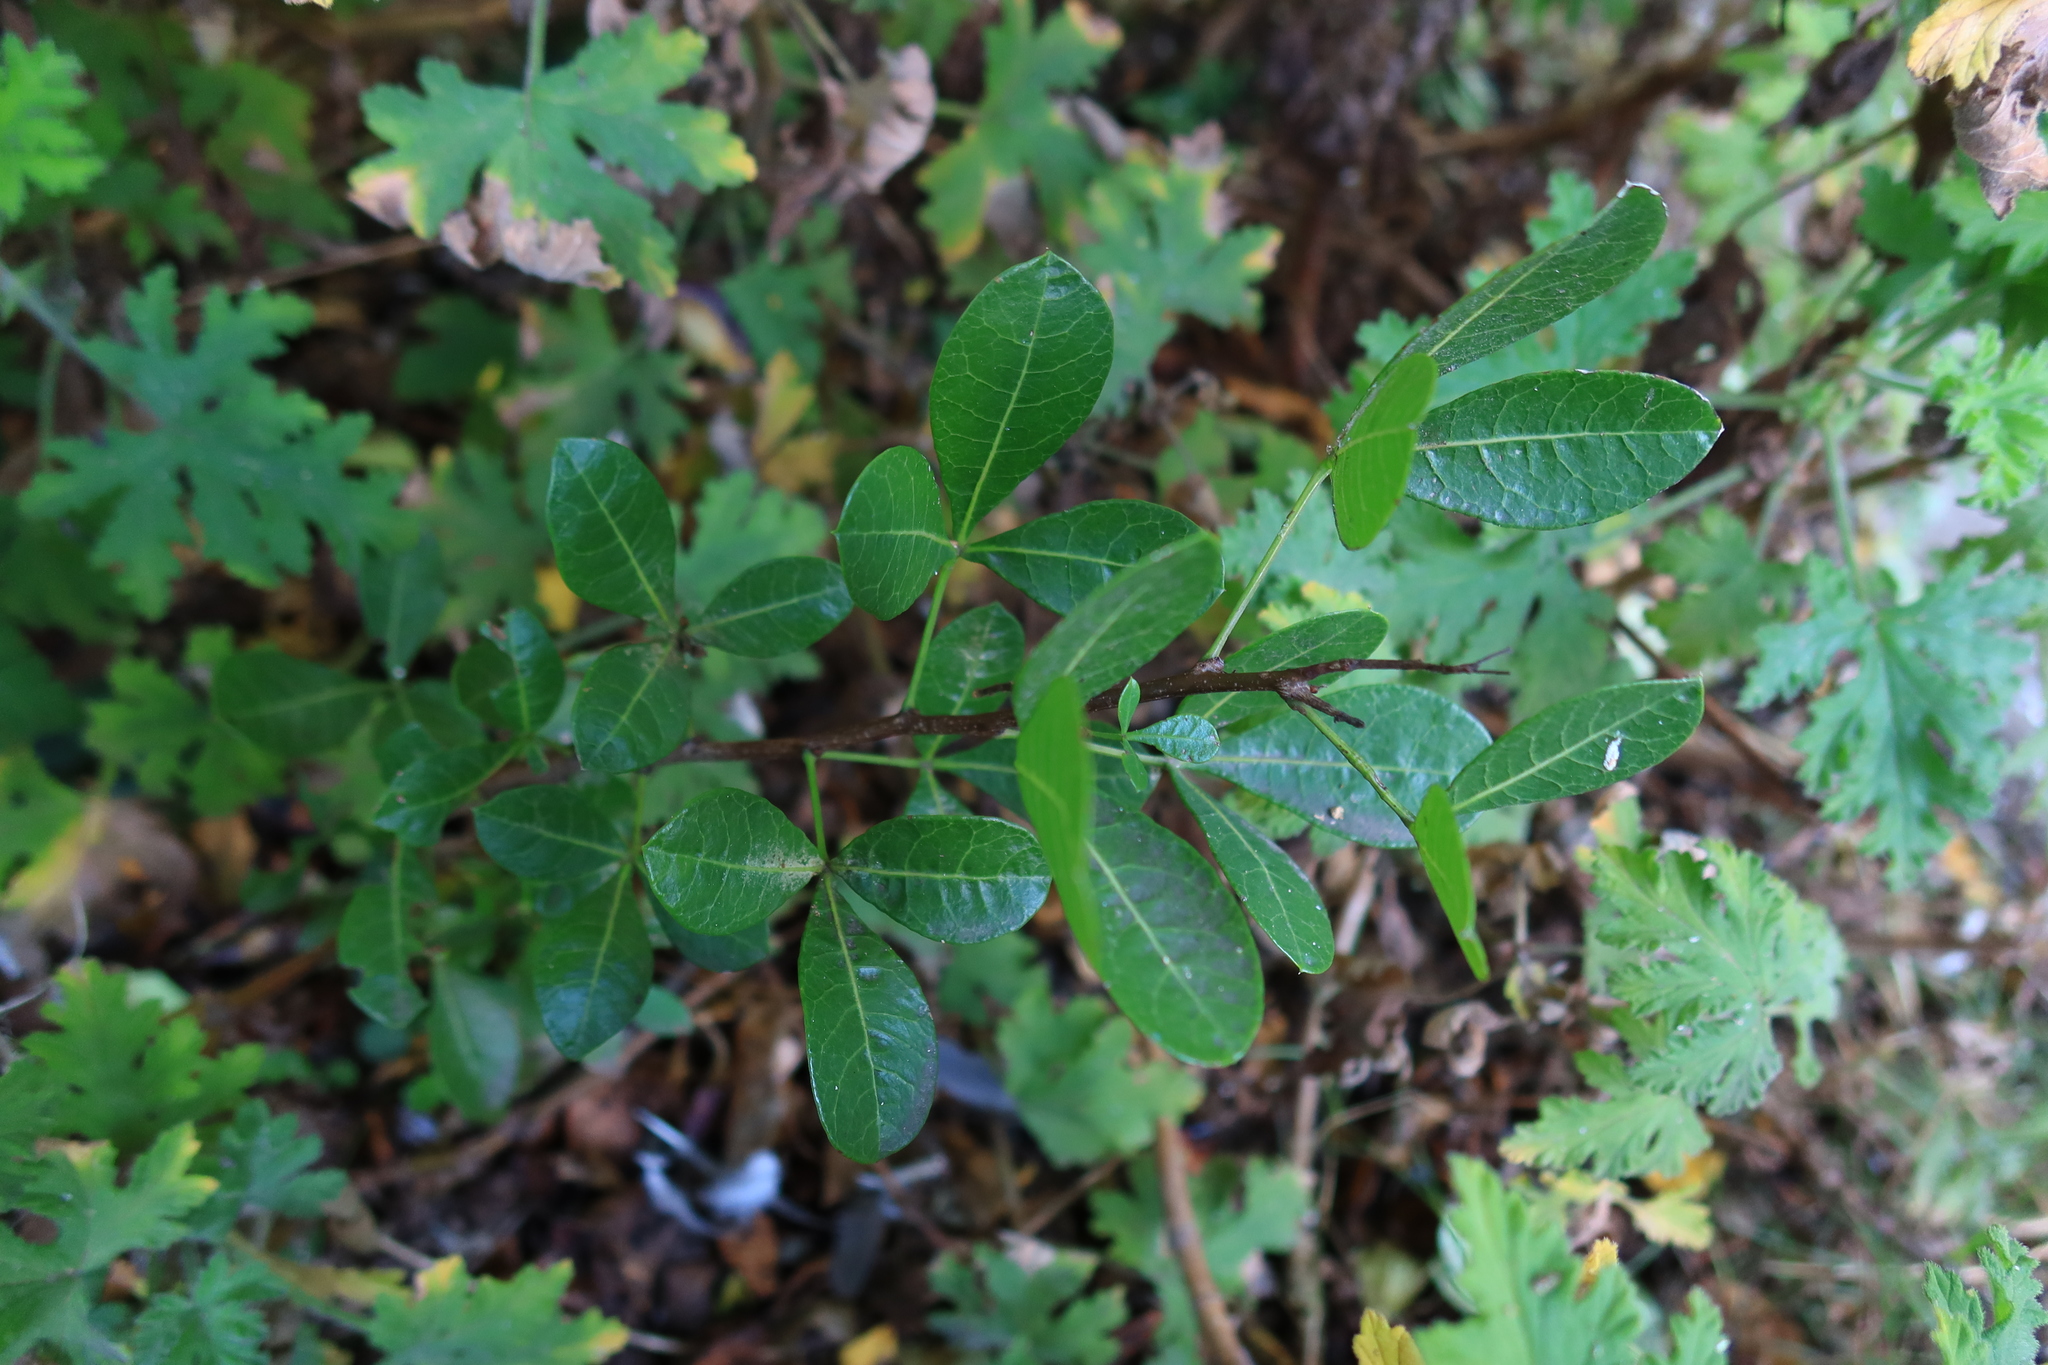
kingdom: Plantae
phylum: Tracheophyta
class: Magnoliopsida
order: Sapindales
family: Anacardiaceae
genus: Searsia
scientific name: Searsia laevigata
